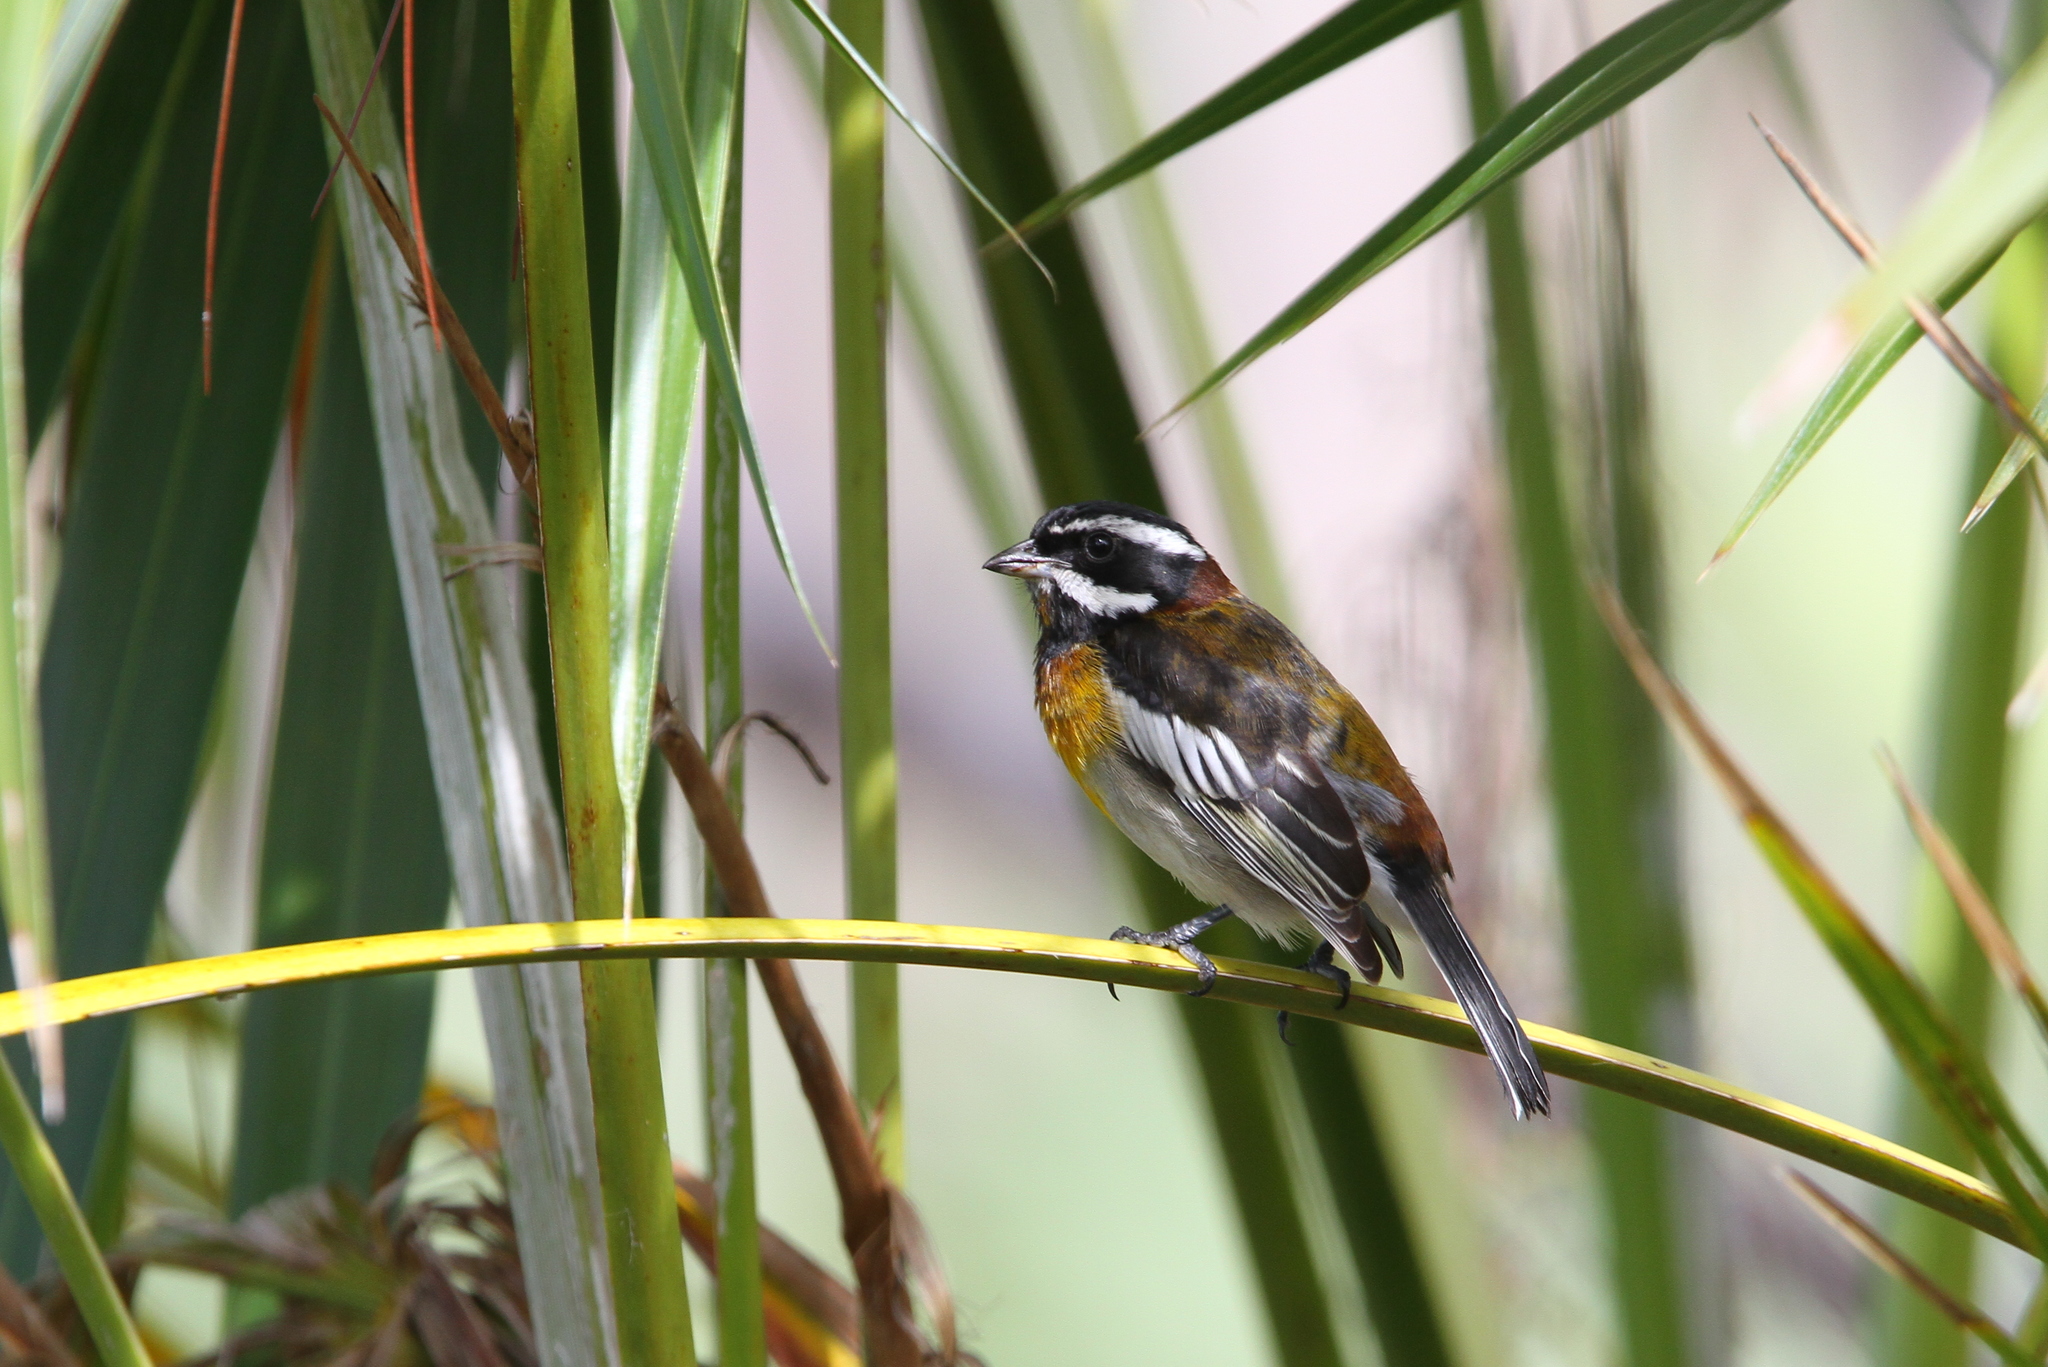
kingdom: Animalia
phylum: Chordata
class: Aves
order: Passeriformes
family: Spindalidae
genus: Spindalis
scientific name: Spindalis zena
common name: Western spindalis
